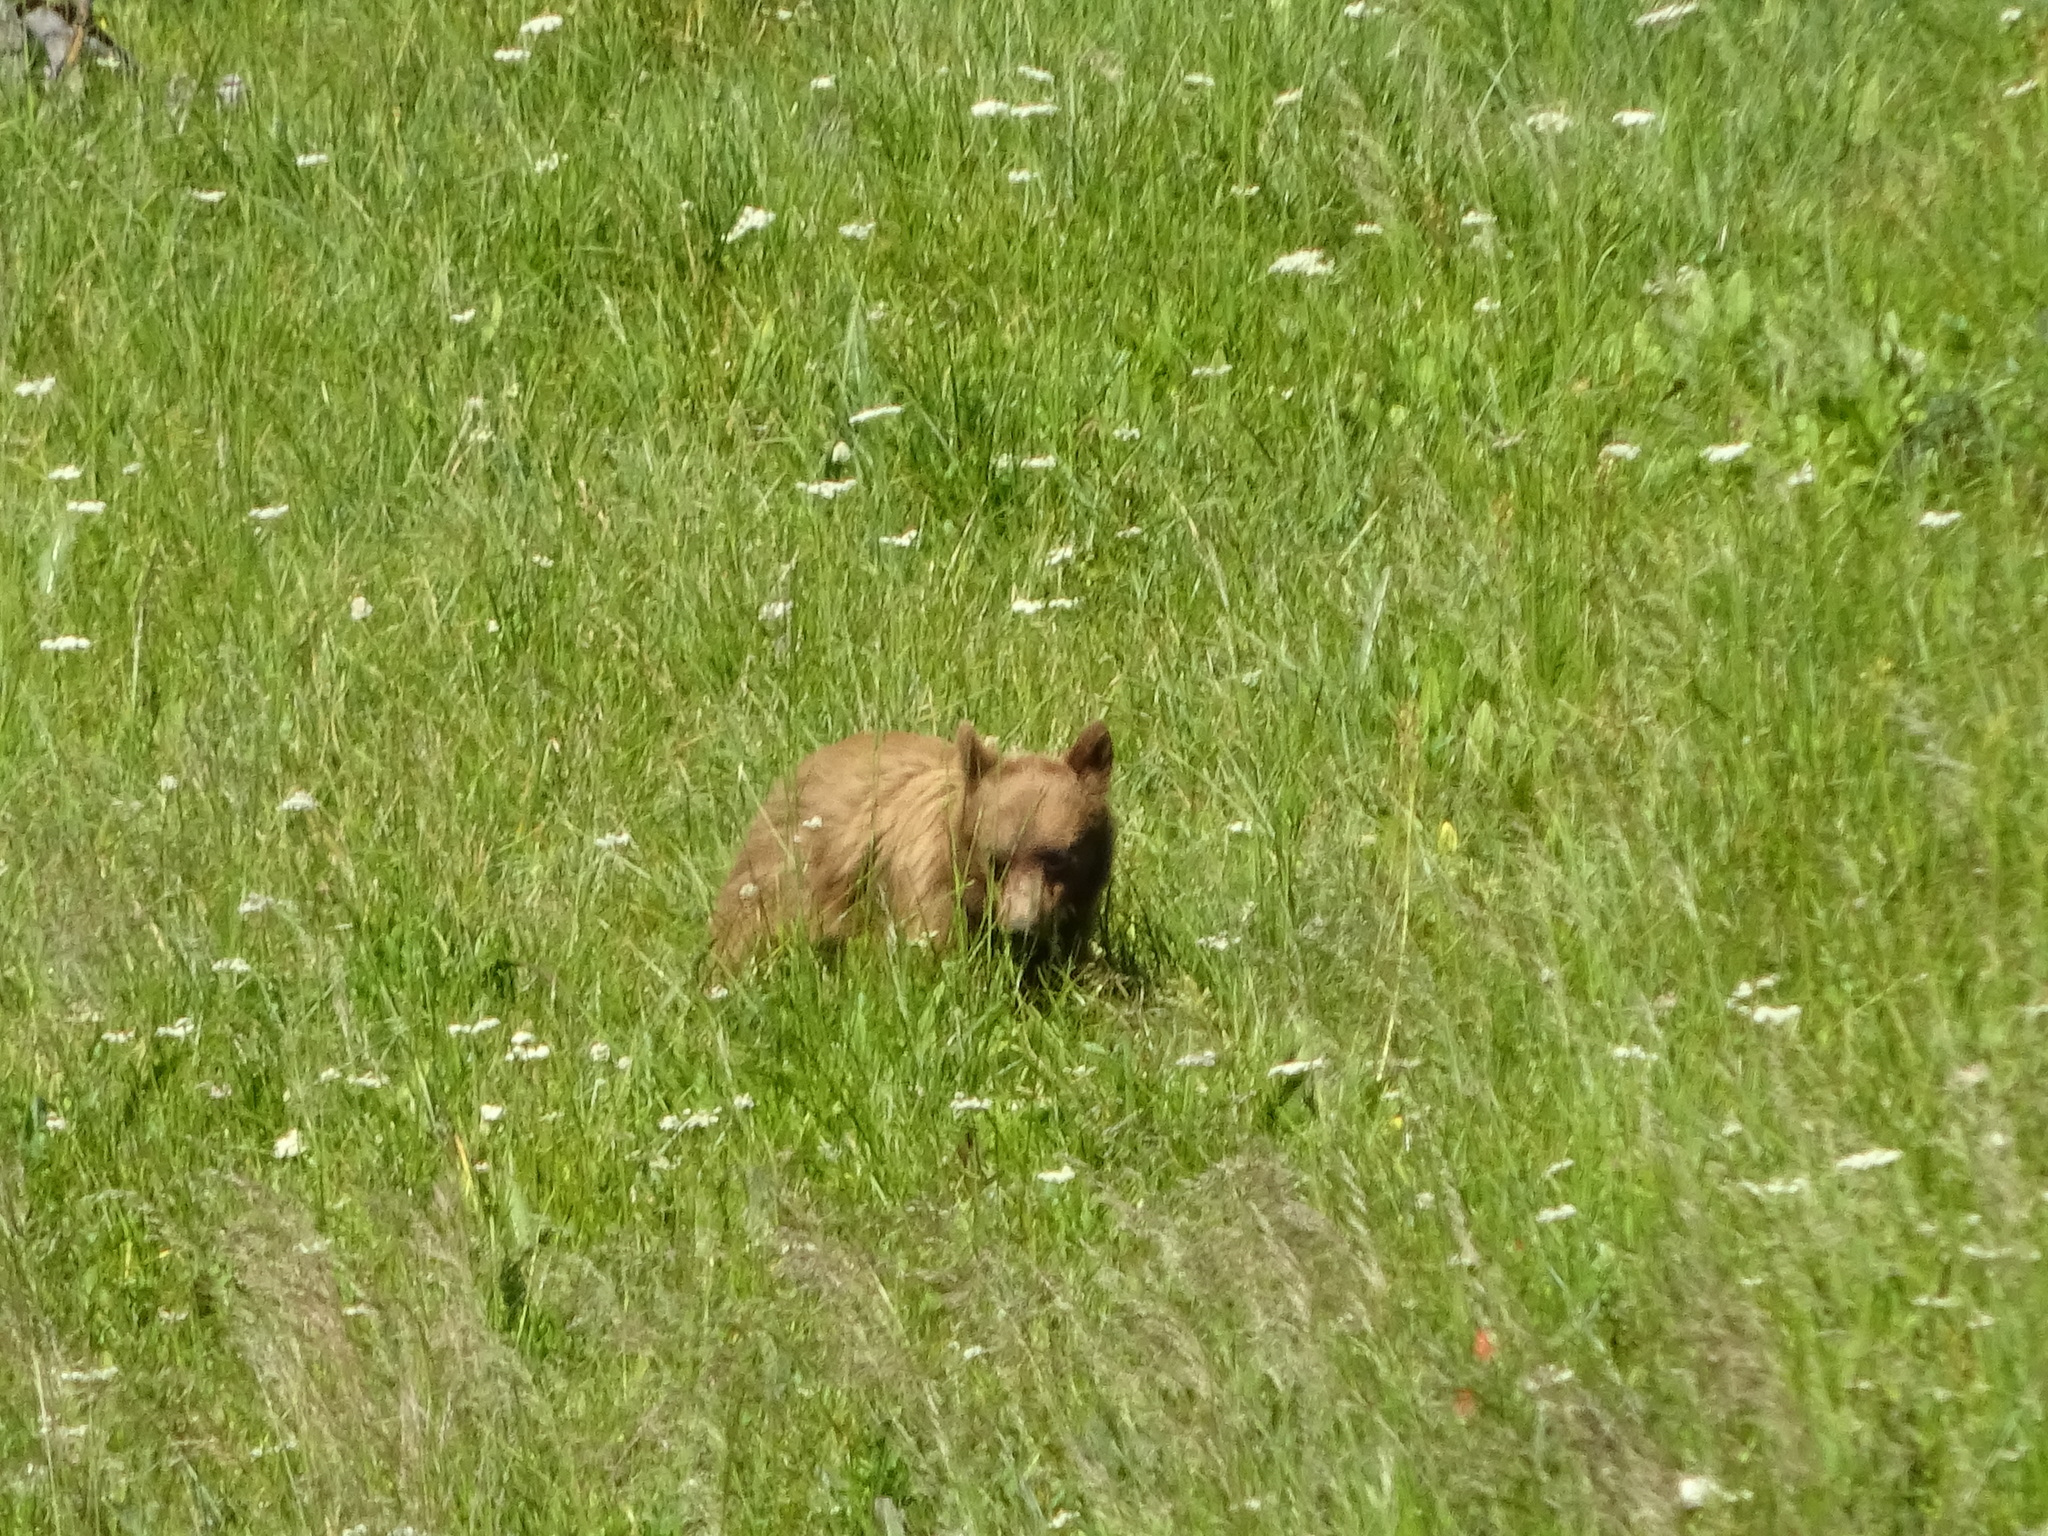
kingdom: Animalia
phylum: Chordata
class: Mammalia
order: Carnivora
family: Ursidae
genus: Ursus
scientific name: Ursus americanus
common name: American black bear
